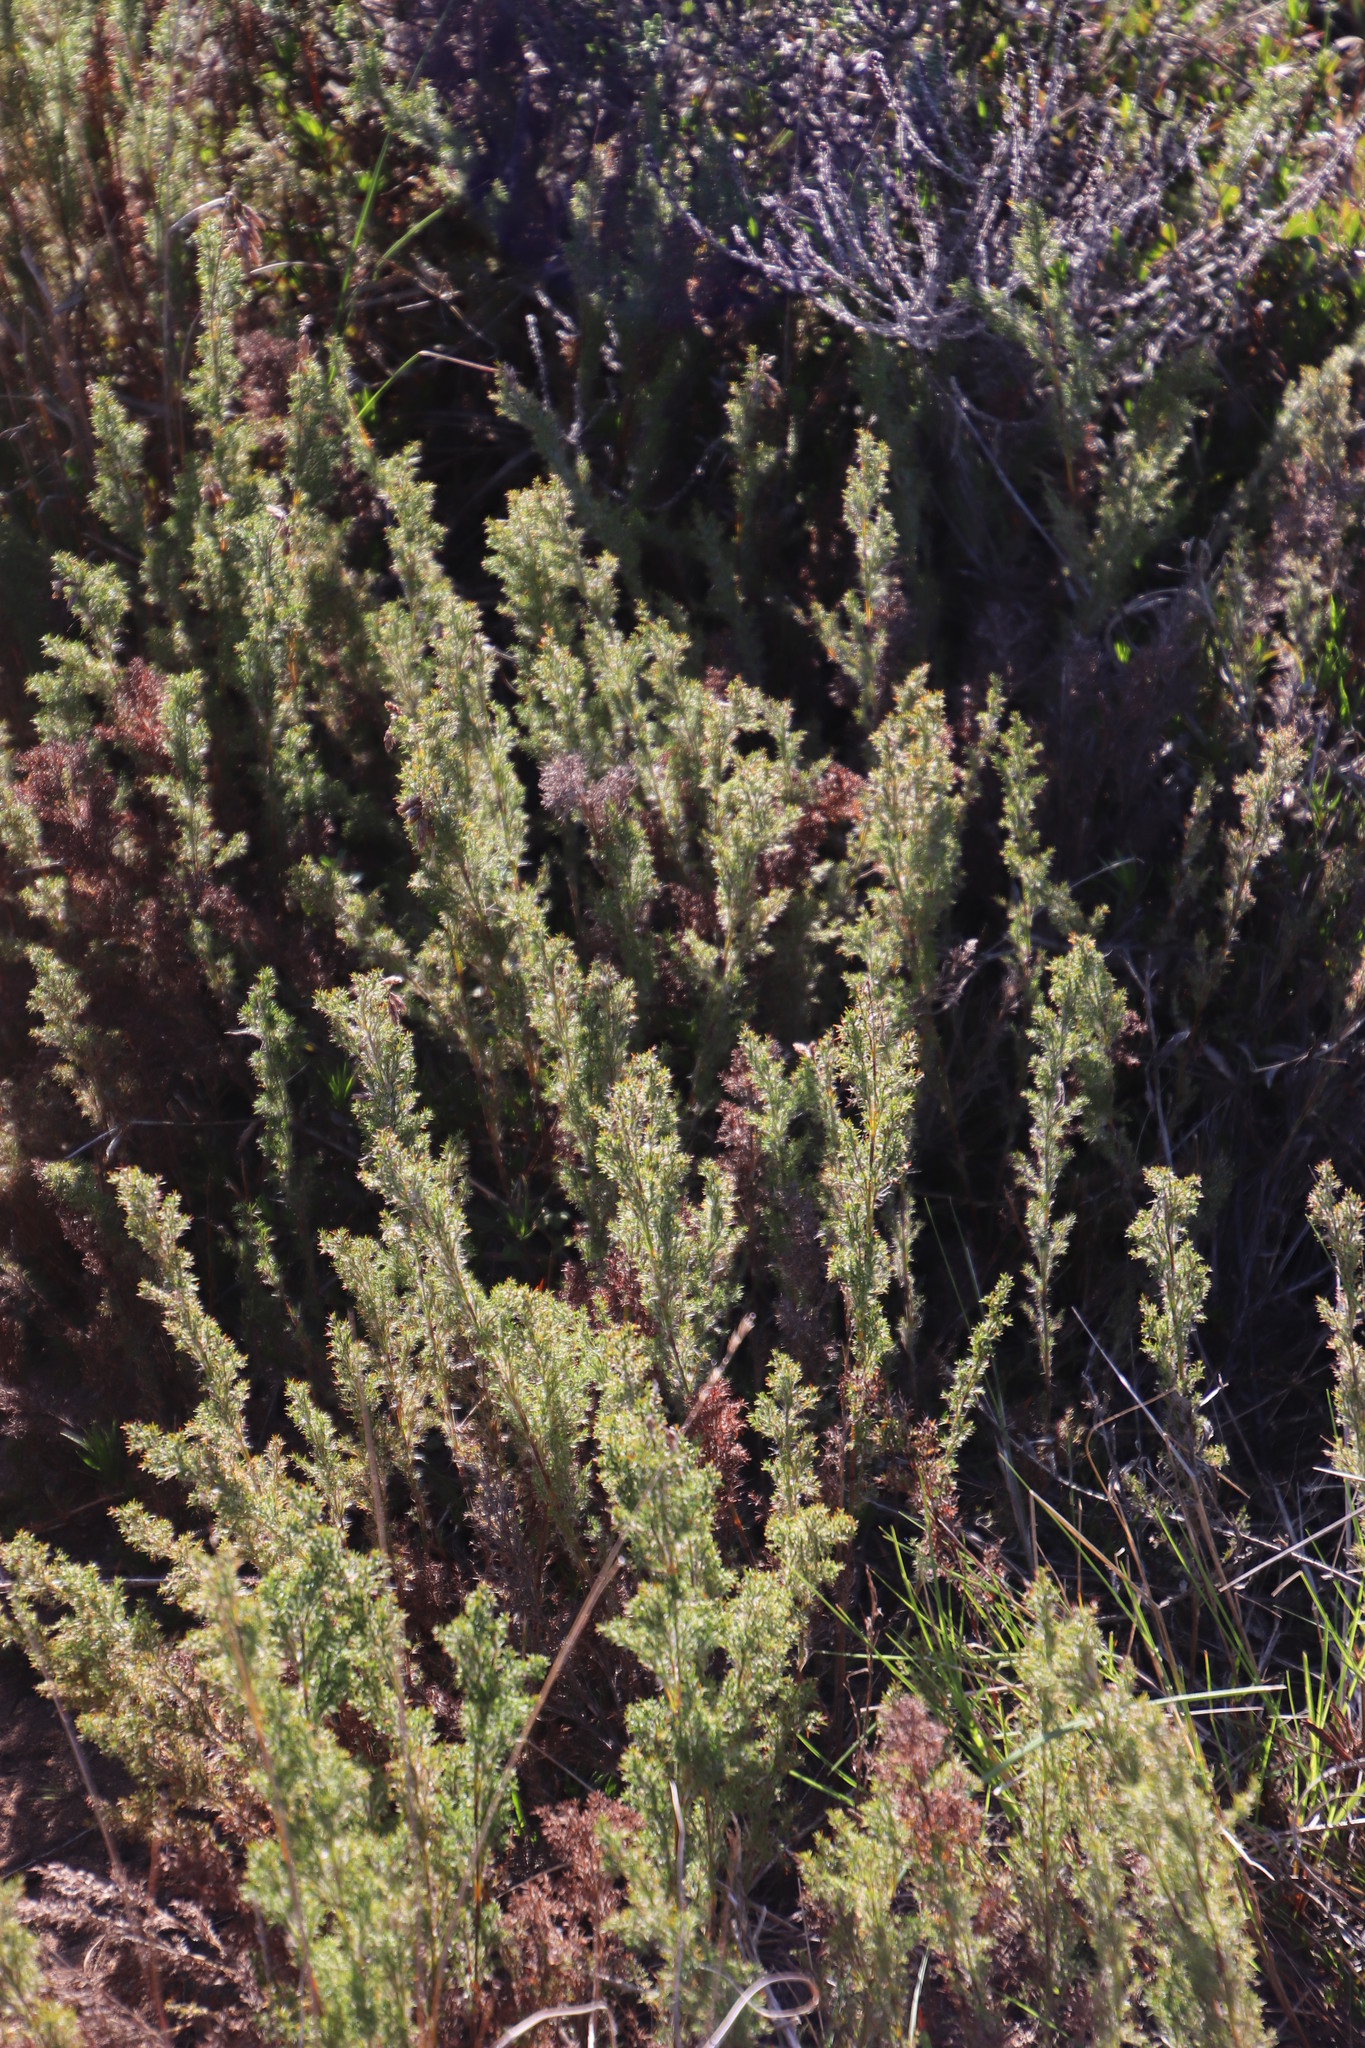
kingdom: Plantae
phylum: Tracheophyta
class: Liliopsida
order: Poales
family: Restionaceae
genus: Thamnochortus
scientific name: Thamnochortus fruticosus
